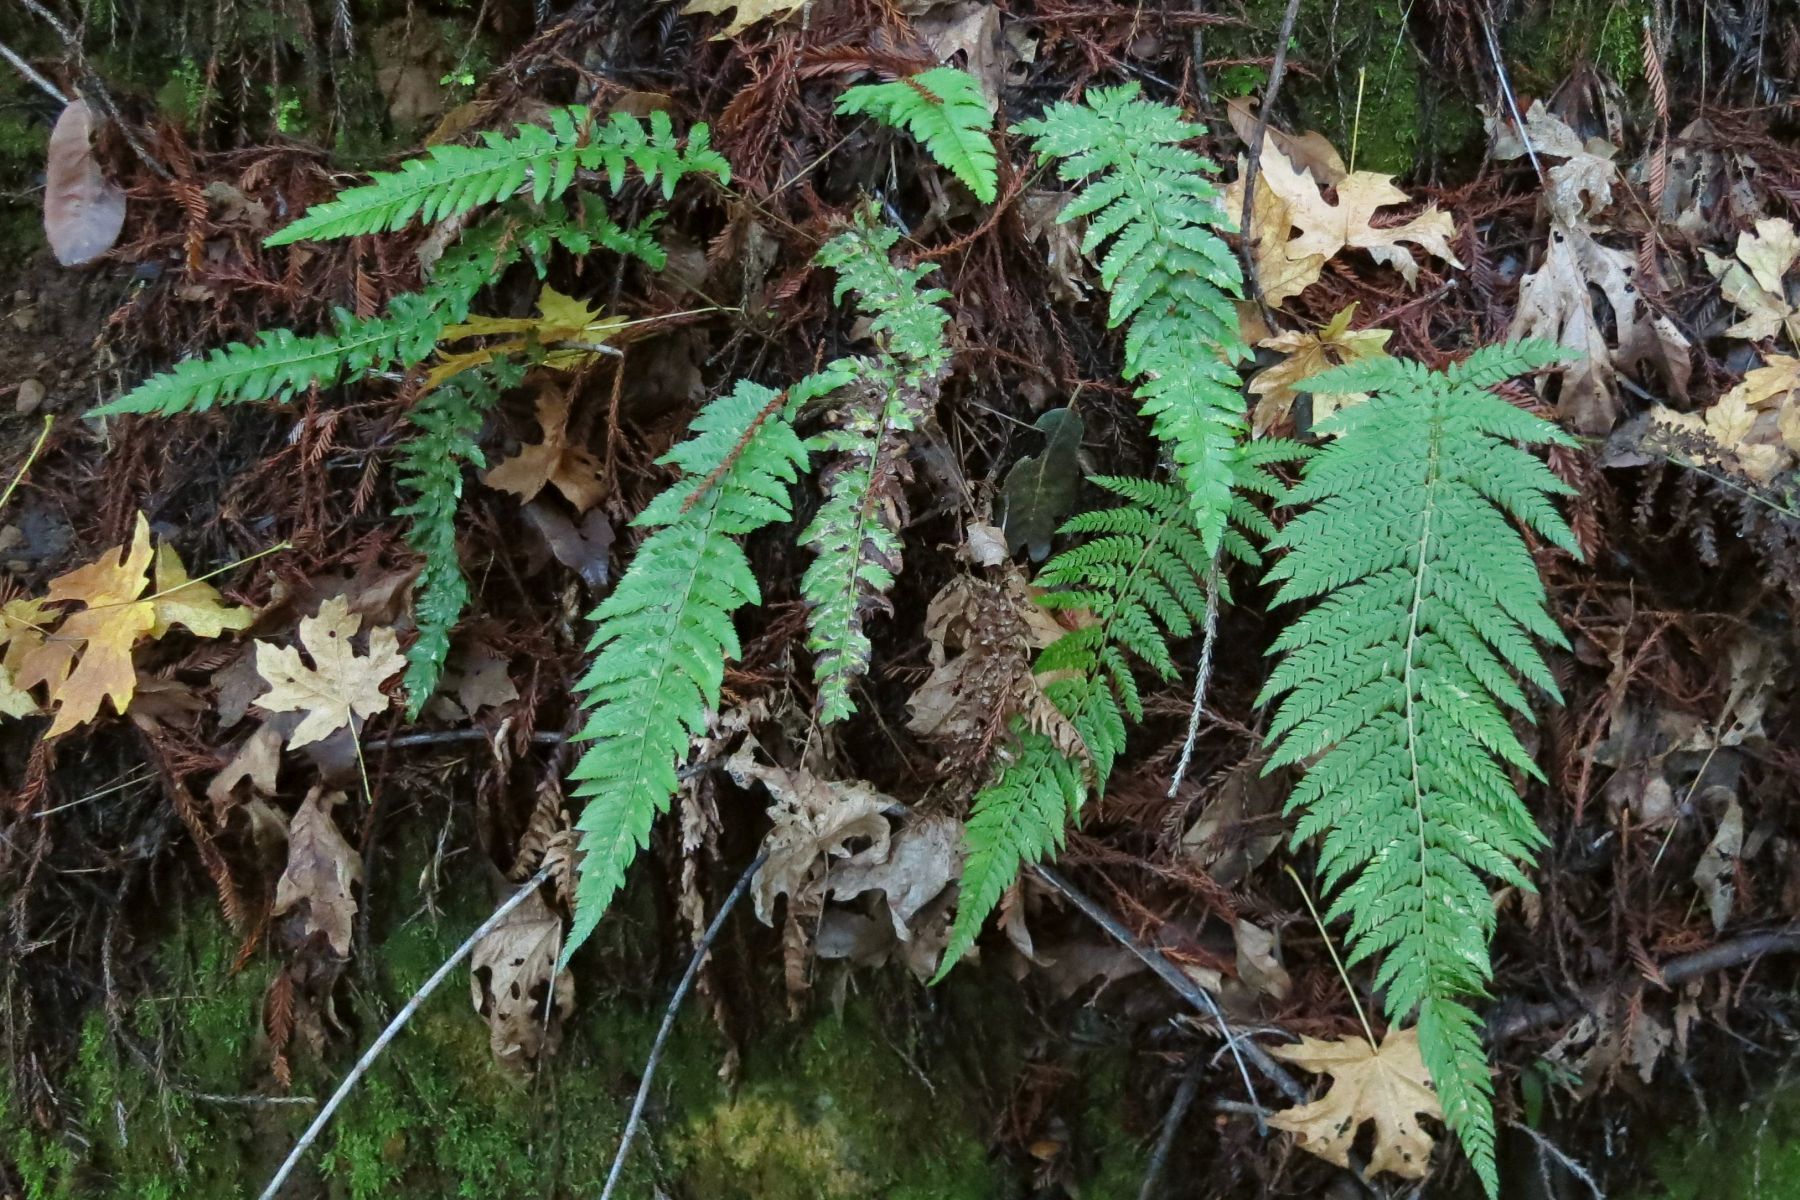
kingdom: Plantae
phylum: Tracheophyta
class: Polypodiopsida
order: Polypodiales
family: Dryopteridaceae
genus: Polystichum
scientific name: Polystichum dudleyi
